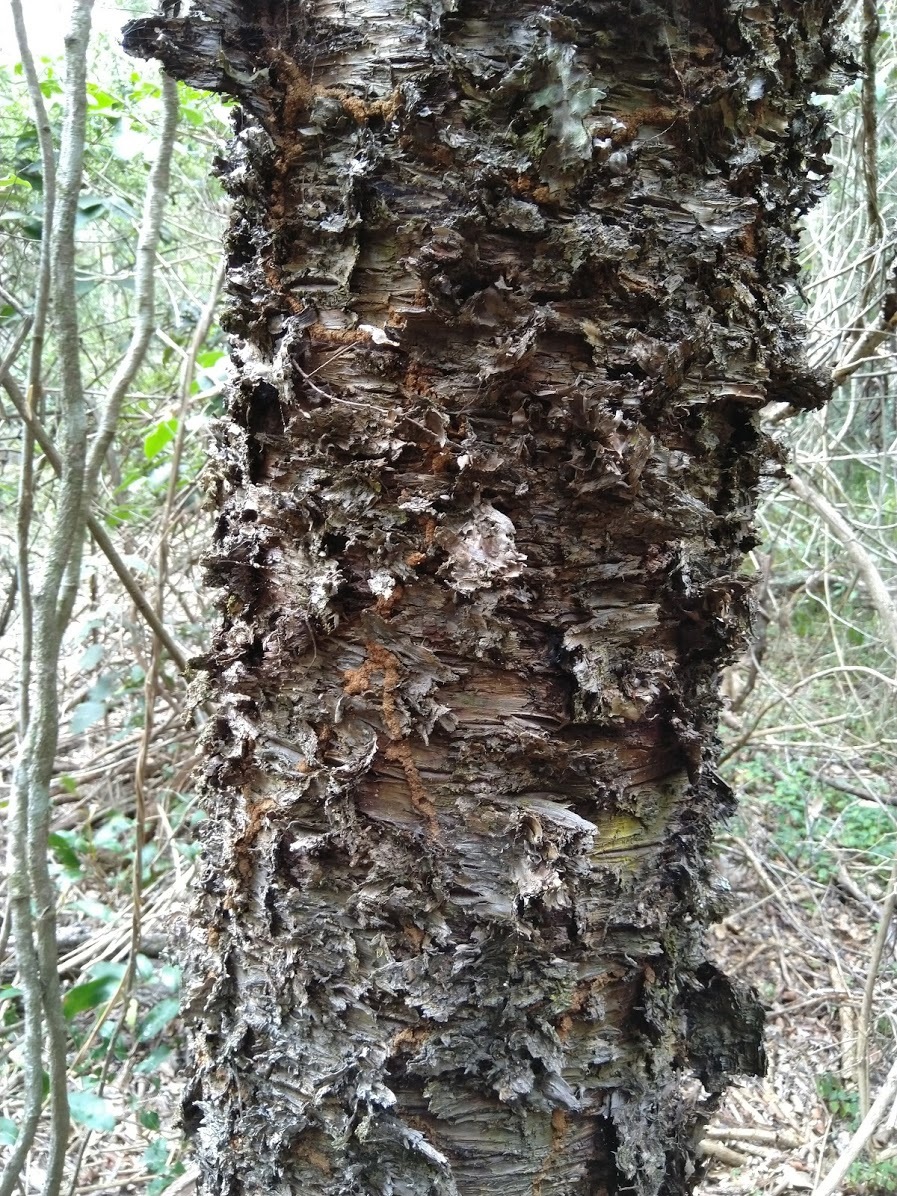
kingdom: Plantae
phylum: Tracheophyta
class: Pinopsida
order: Pinales
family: Araucariaceae
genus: Araucaria
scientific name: Araucaria cunninghamii
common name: Colonial pine
